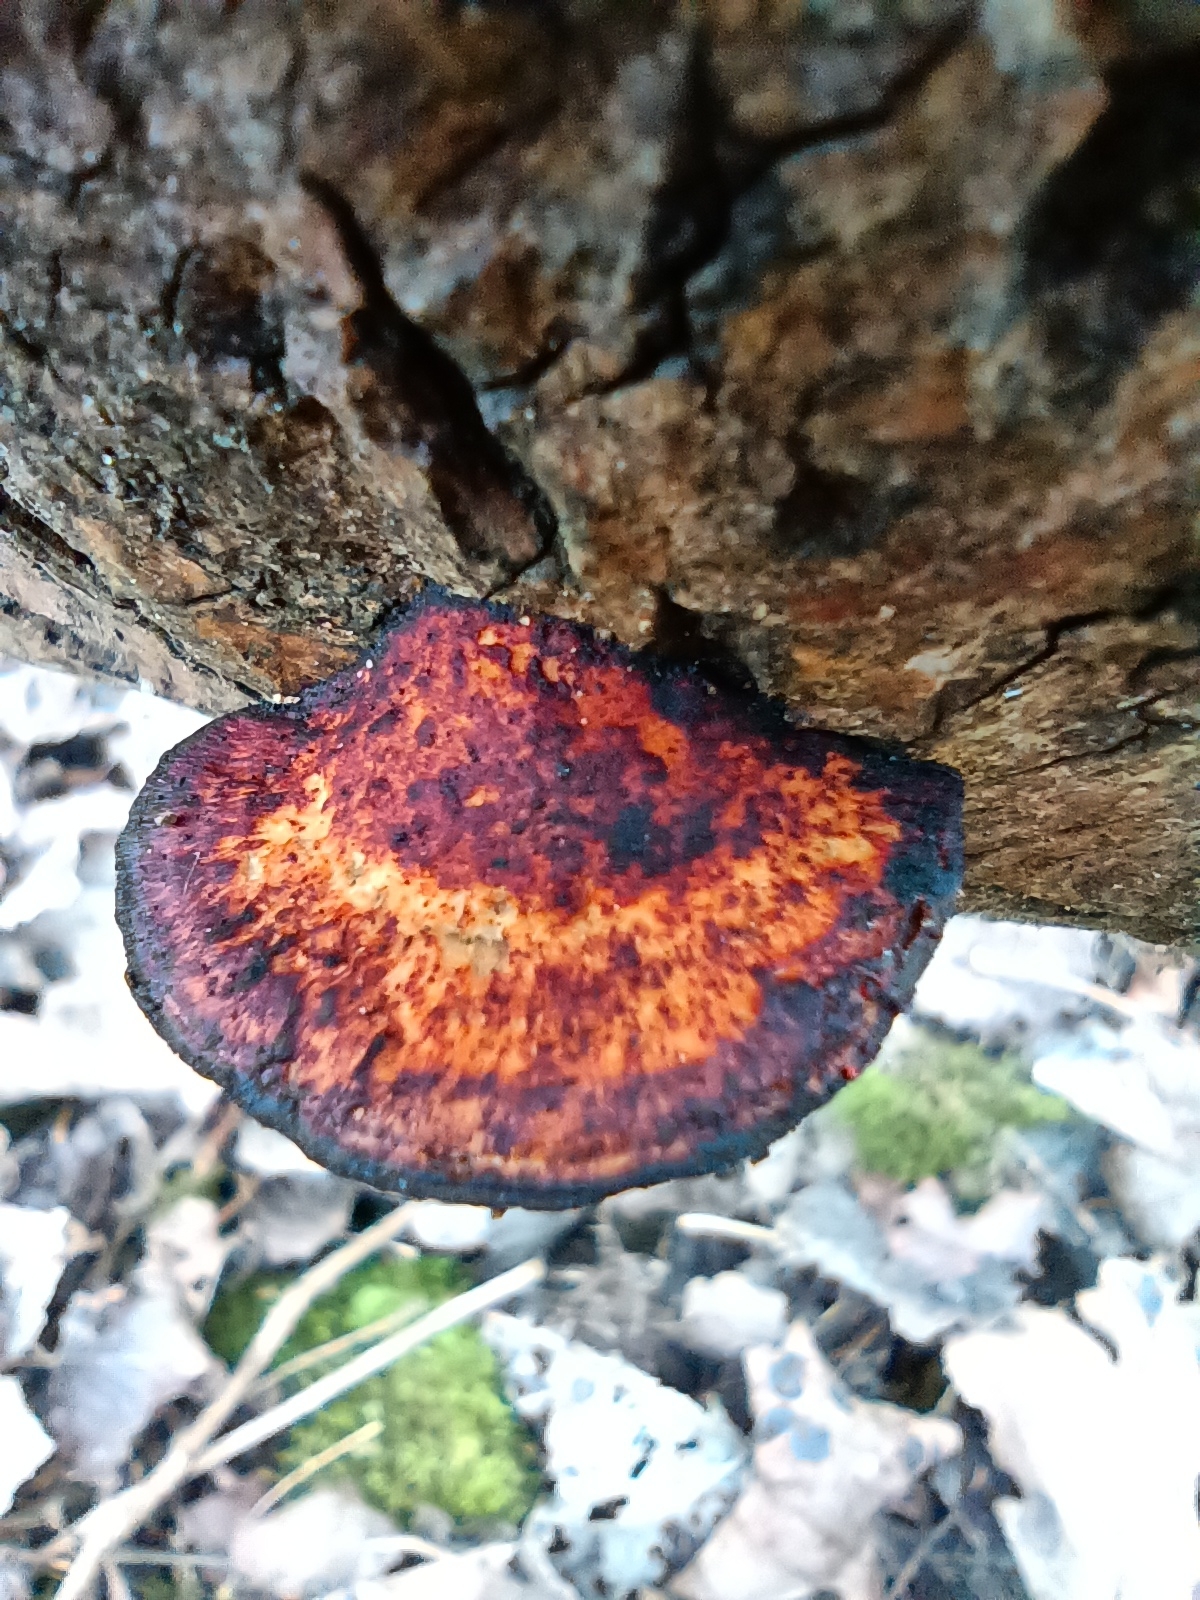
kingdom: Fungi
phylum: Basidiomycota
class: Agaricomycetes
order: Polyporales
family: Polyporaceae
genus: Daedaleopsis
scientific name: Daedaleopsis confragosa
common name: Blushing bracket
